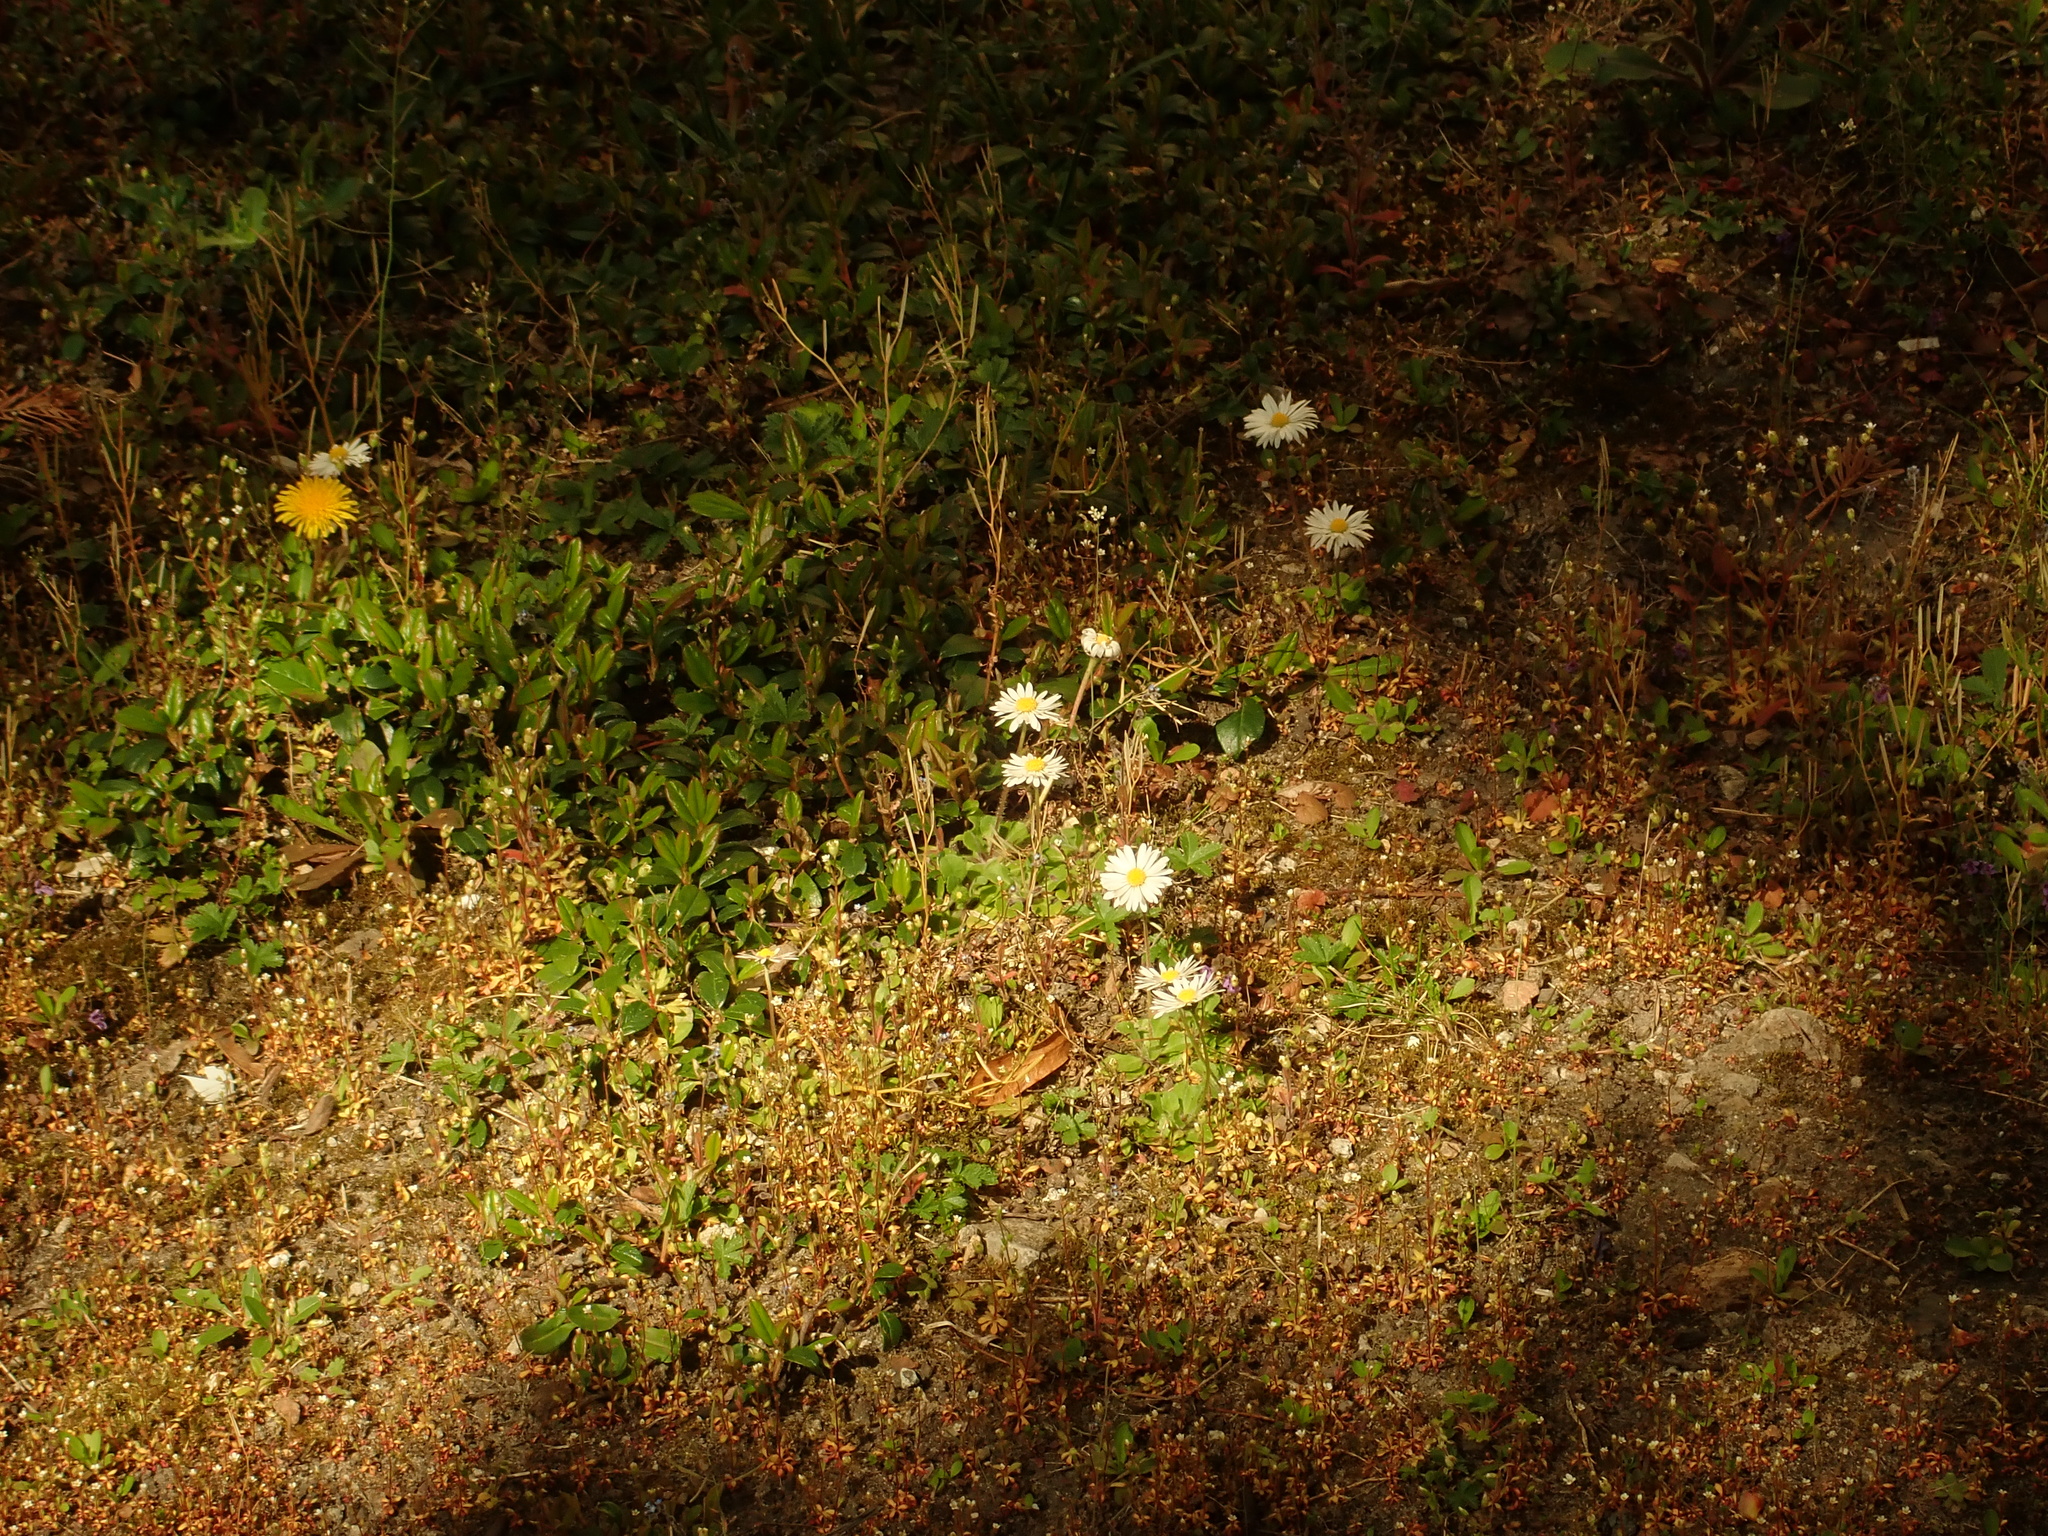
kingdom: Plantae
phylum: Tracheophyta
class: Magnoliopsida
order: Asterales
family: Asteraceae
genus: Bellis
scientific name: Bellis perennis
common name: Lawndaisy
